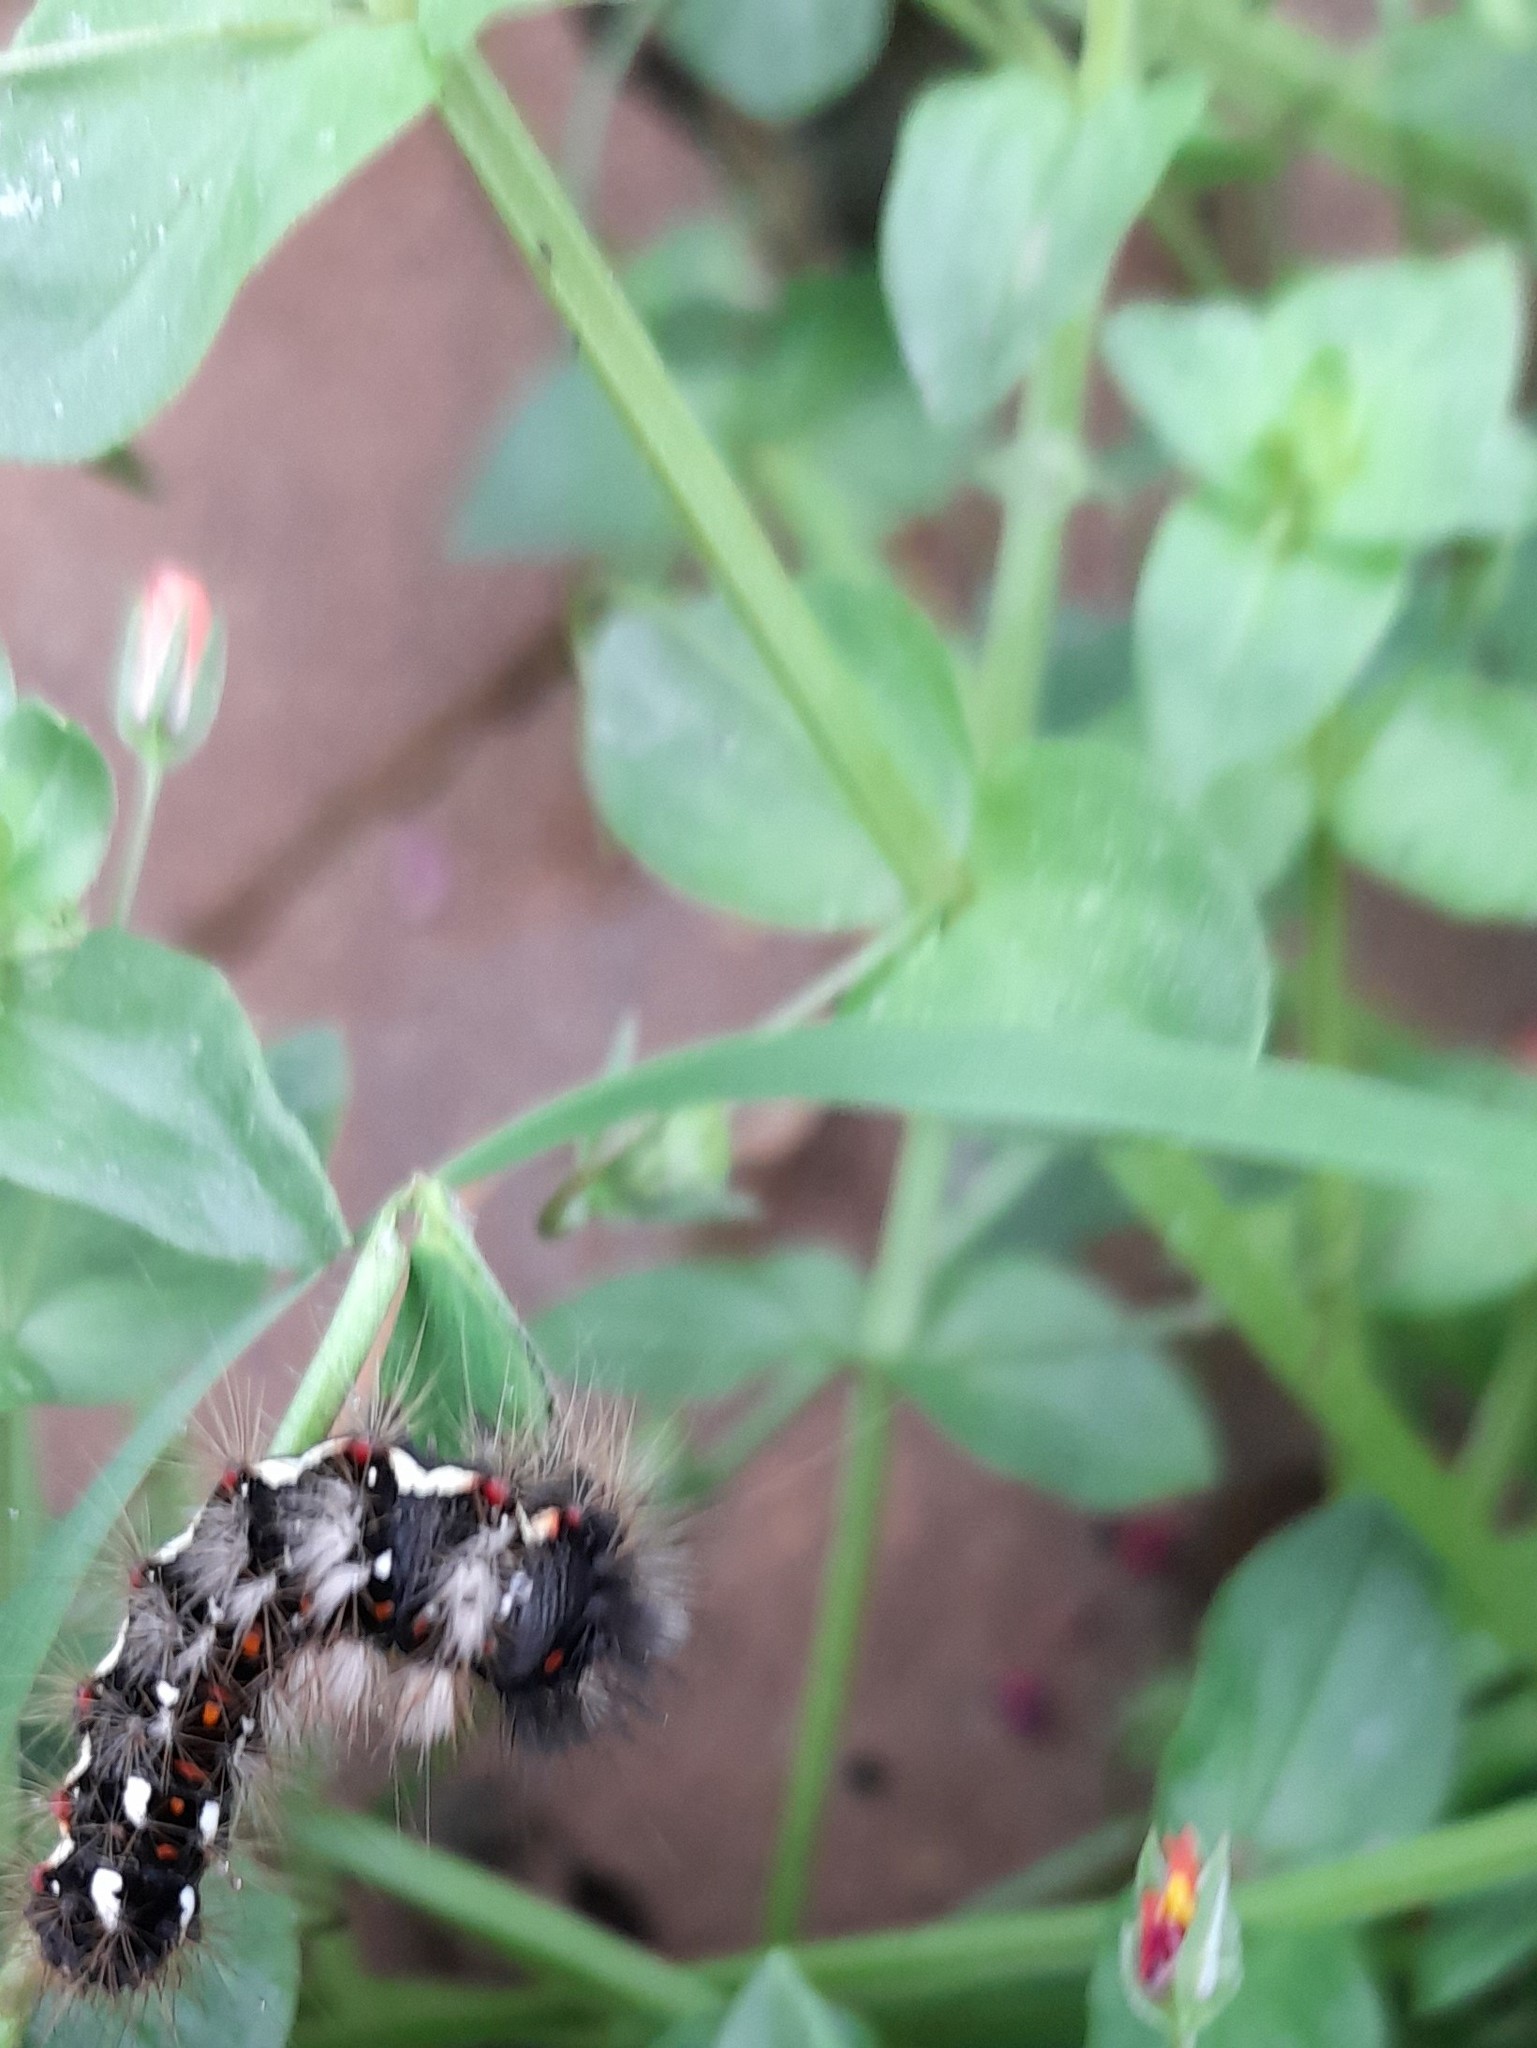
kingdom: Animalia
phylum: Arthropoda
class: Insecta
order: Lepidoptera
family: Noctuidae
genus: Acronicta
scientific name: Acronicta rumicis
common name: Knot grass
